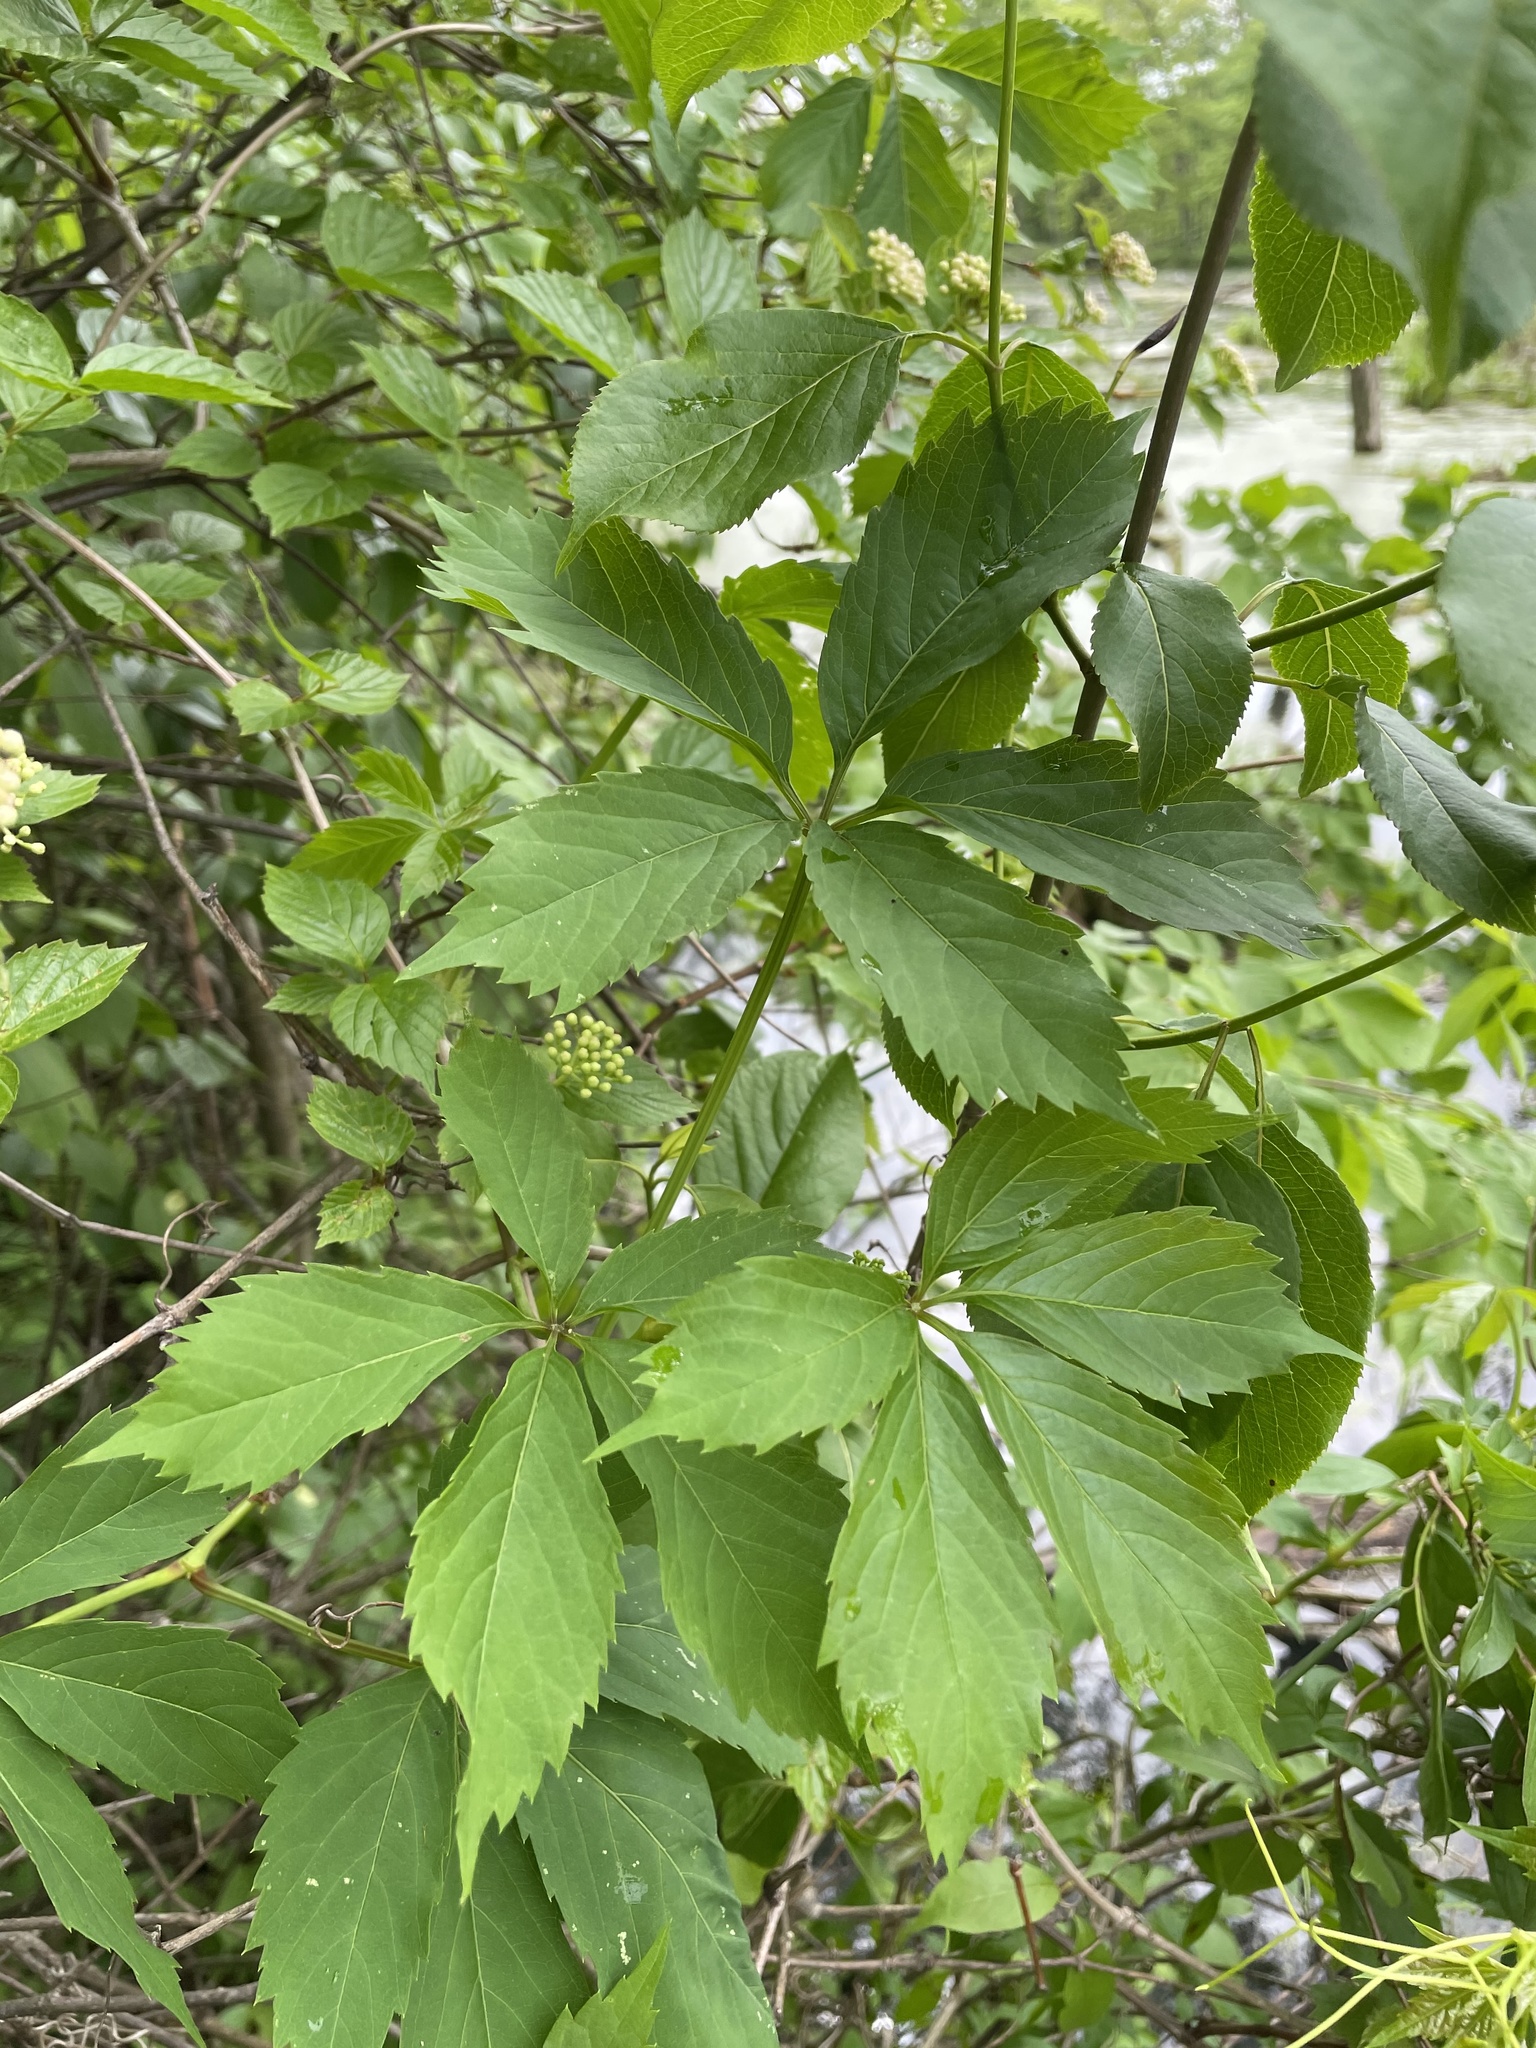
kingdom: Plantae
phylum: Tracheophyta
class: Magnoliopsida
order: Vitales
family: Vitaceae
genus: Parthenocissus
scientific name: Parthenocissus quinquefolia
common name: Virginia-creeper
